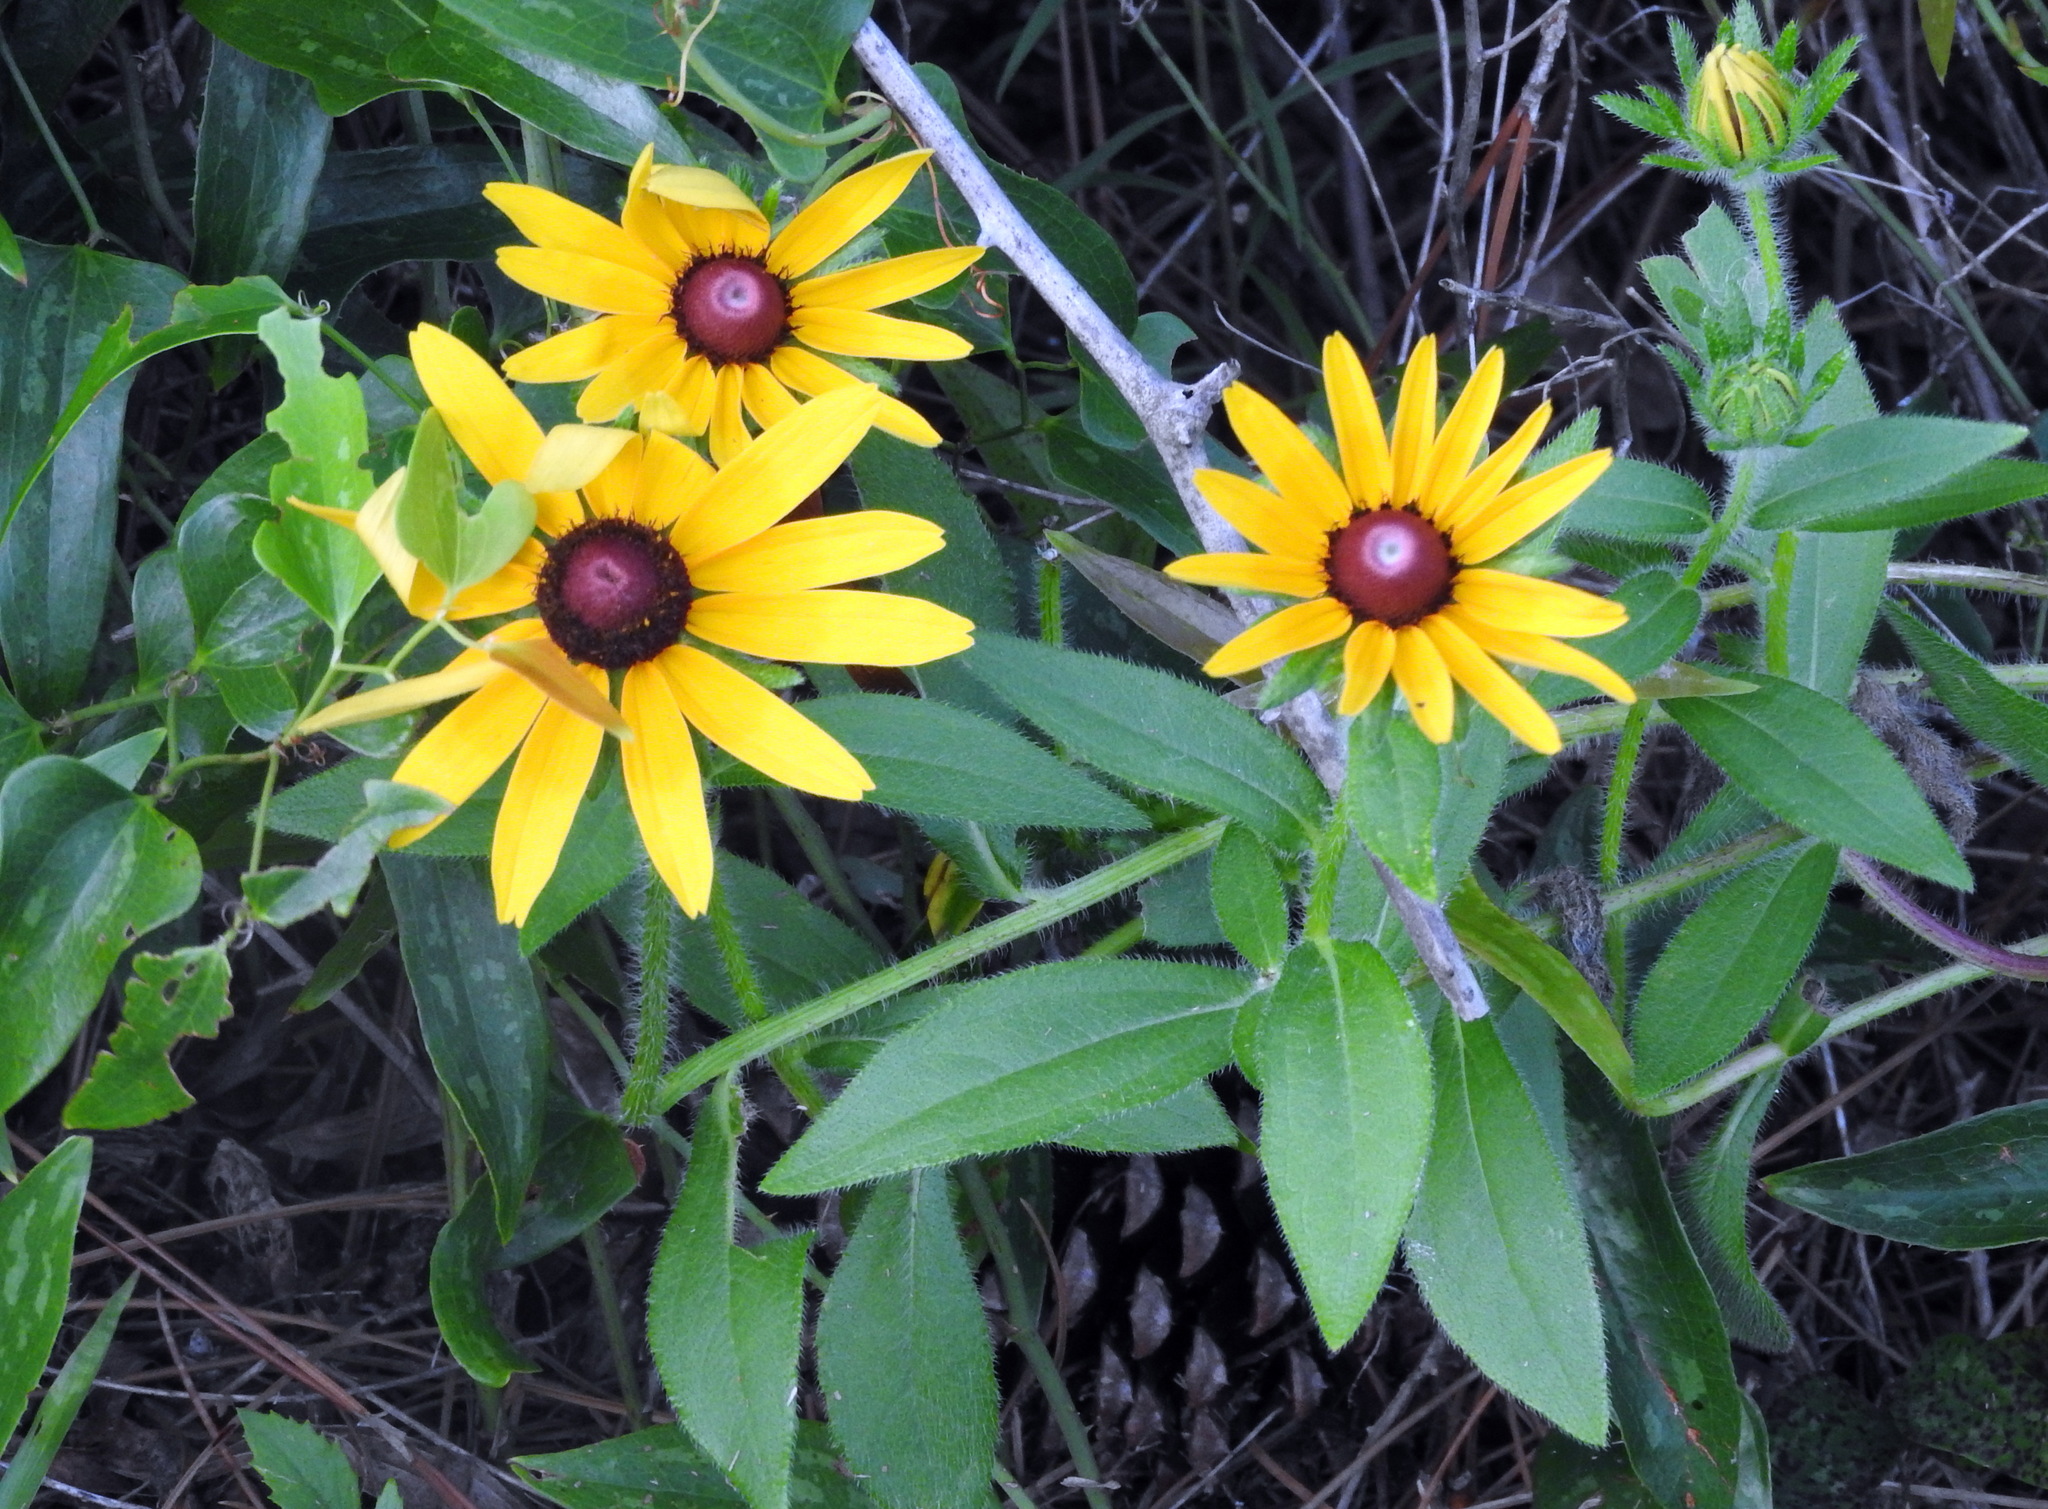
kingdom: Plantae
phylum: Tracheophyta
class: Magnoliopsida
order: Asterales
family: Asteraceae
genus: Rudbeckia
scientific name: Rudbeckia hirta
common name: Black-eyed-susan
